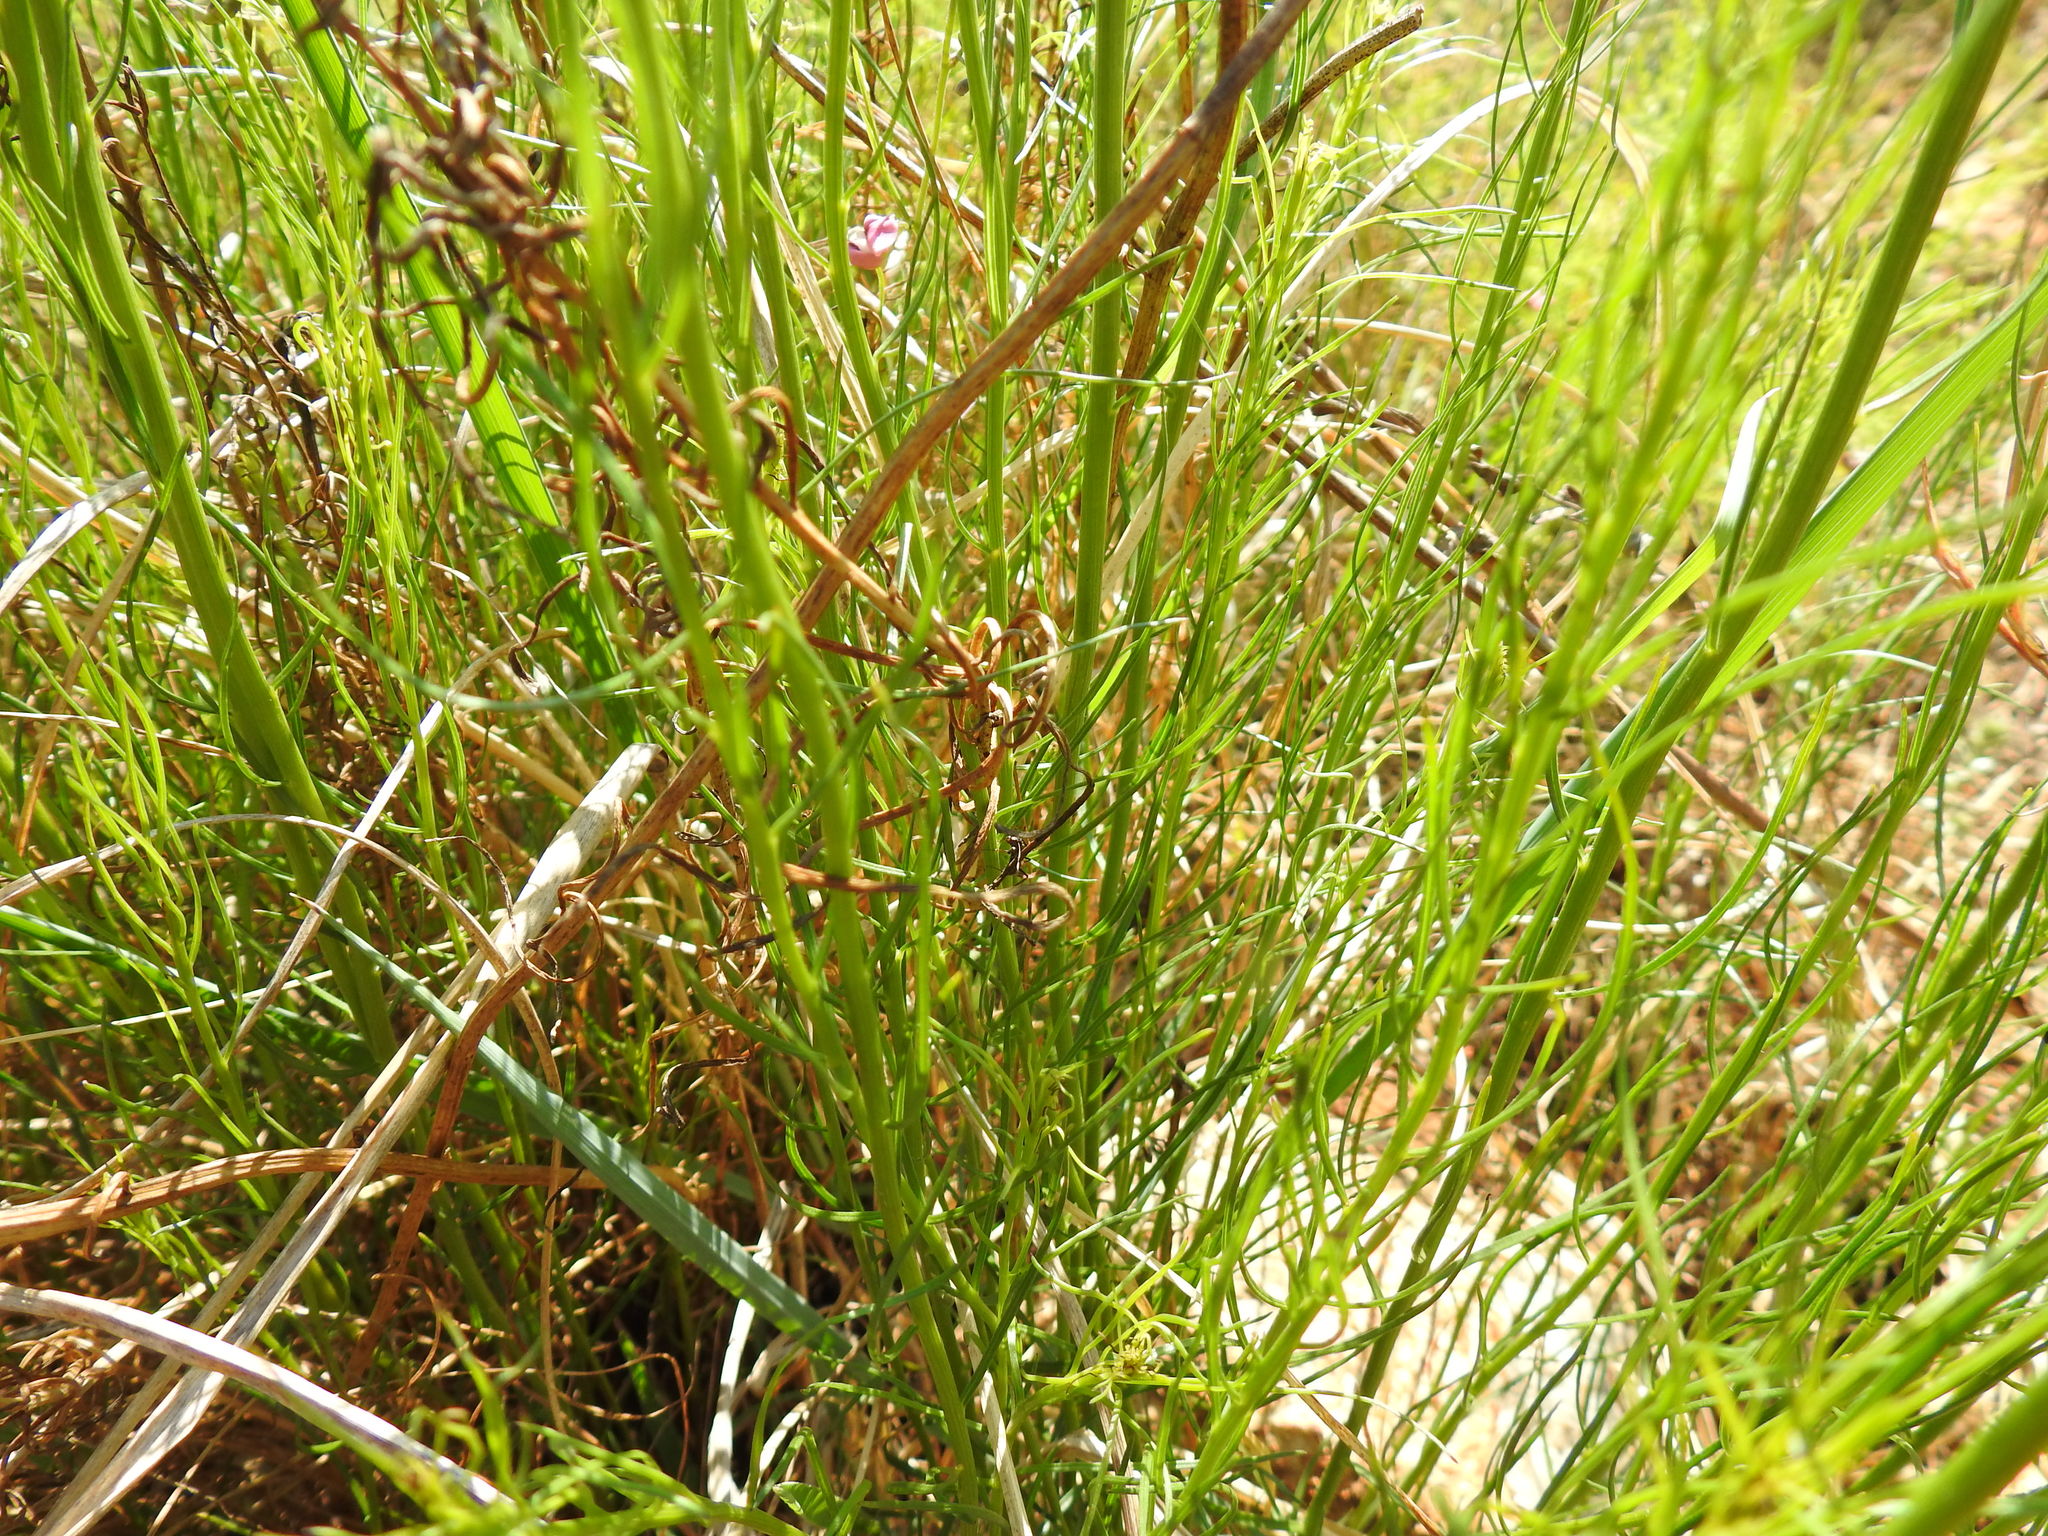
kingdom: Plantae
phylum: Tracheophyta
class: Magnoliopsida
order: Asterales
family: Asteraceae
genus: Callilepis
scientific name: Callilepis leptophylla
